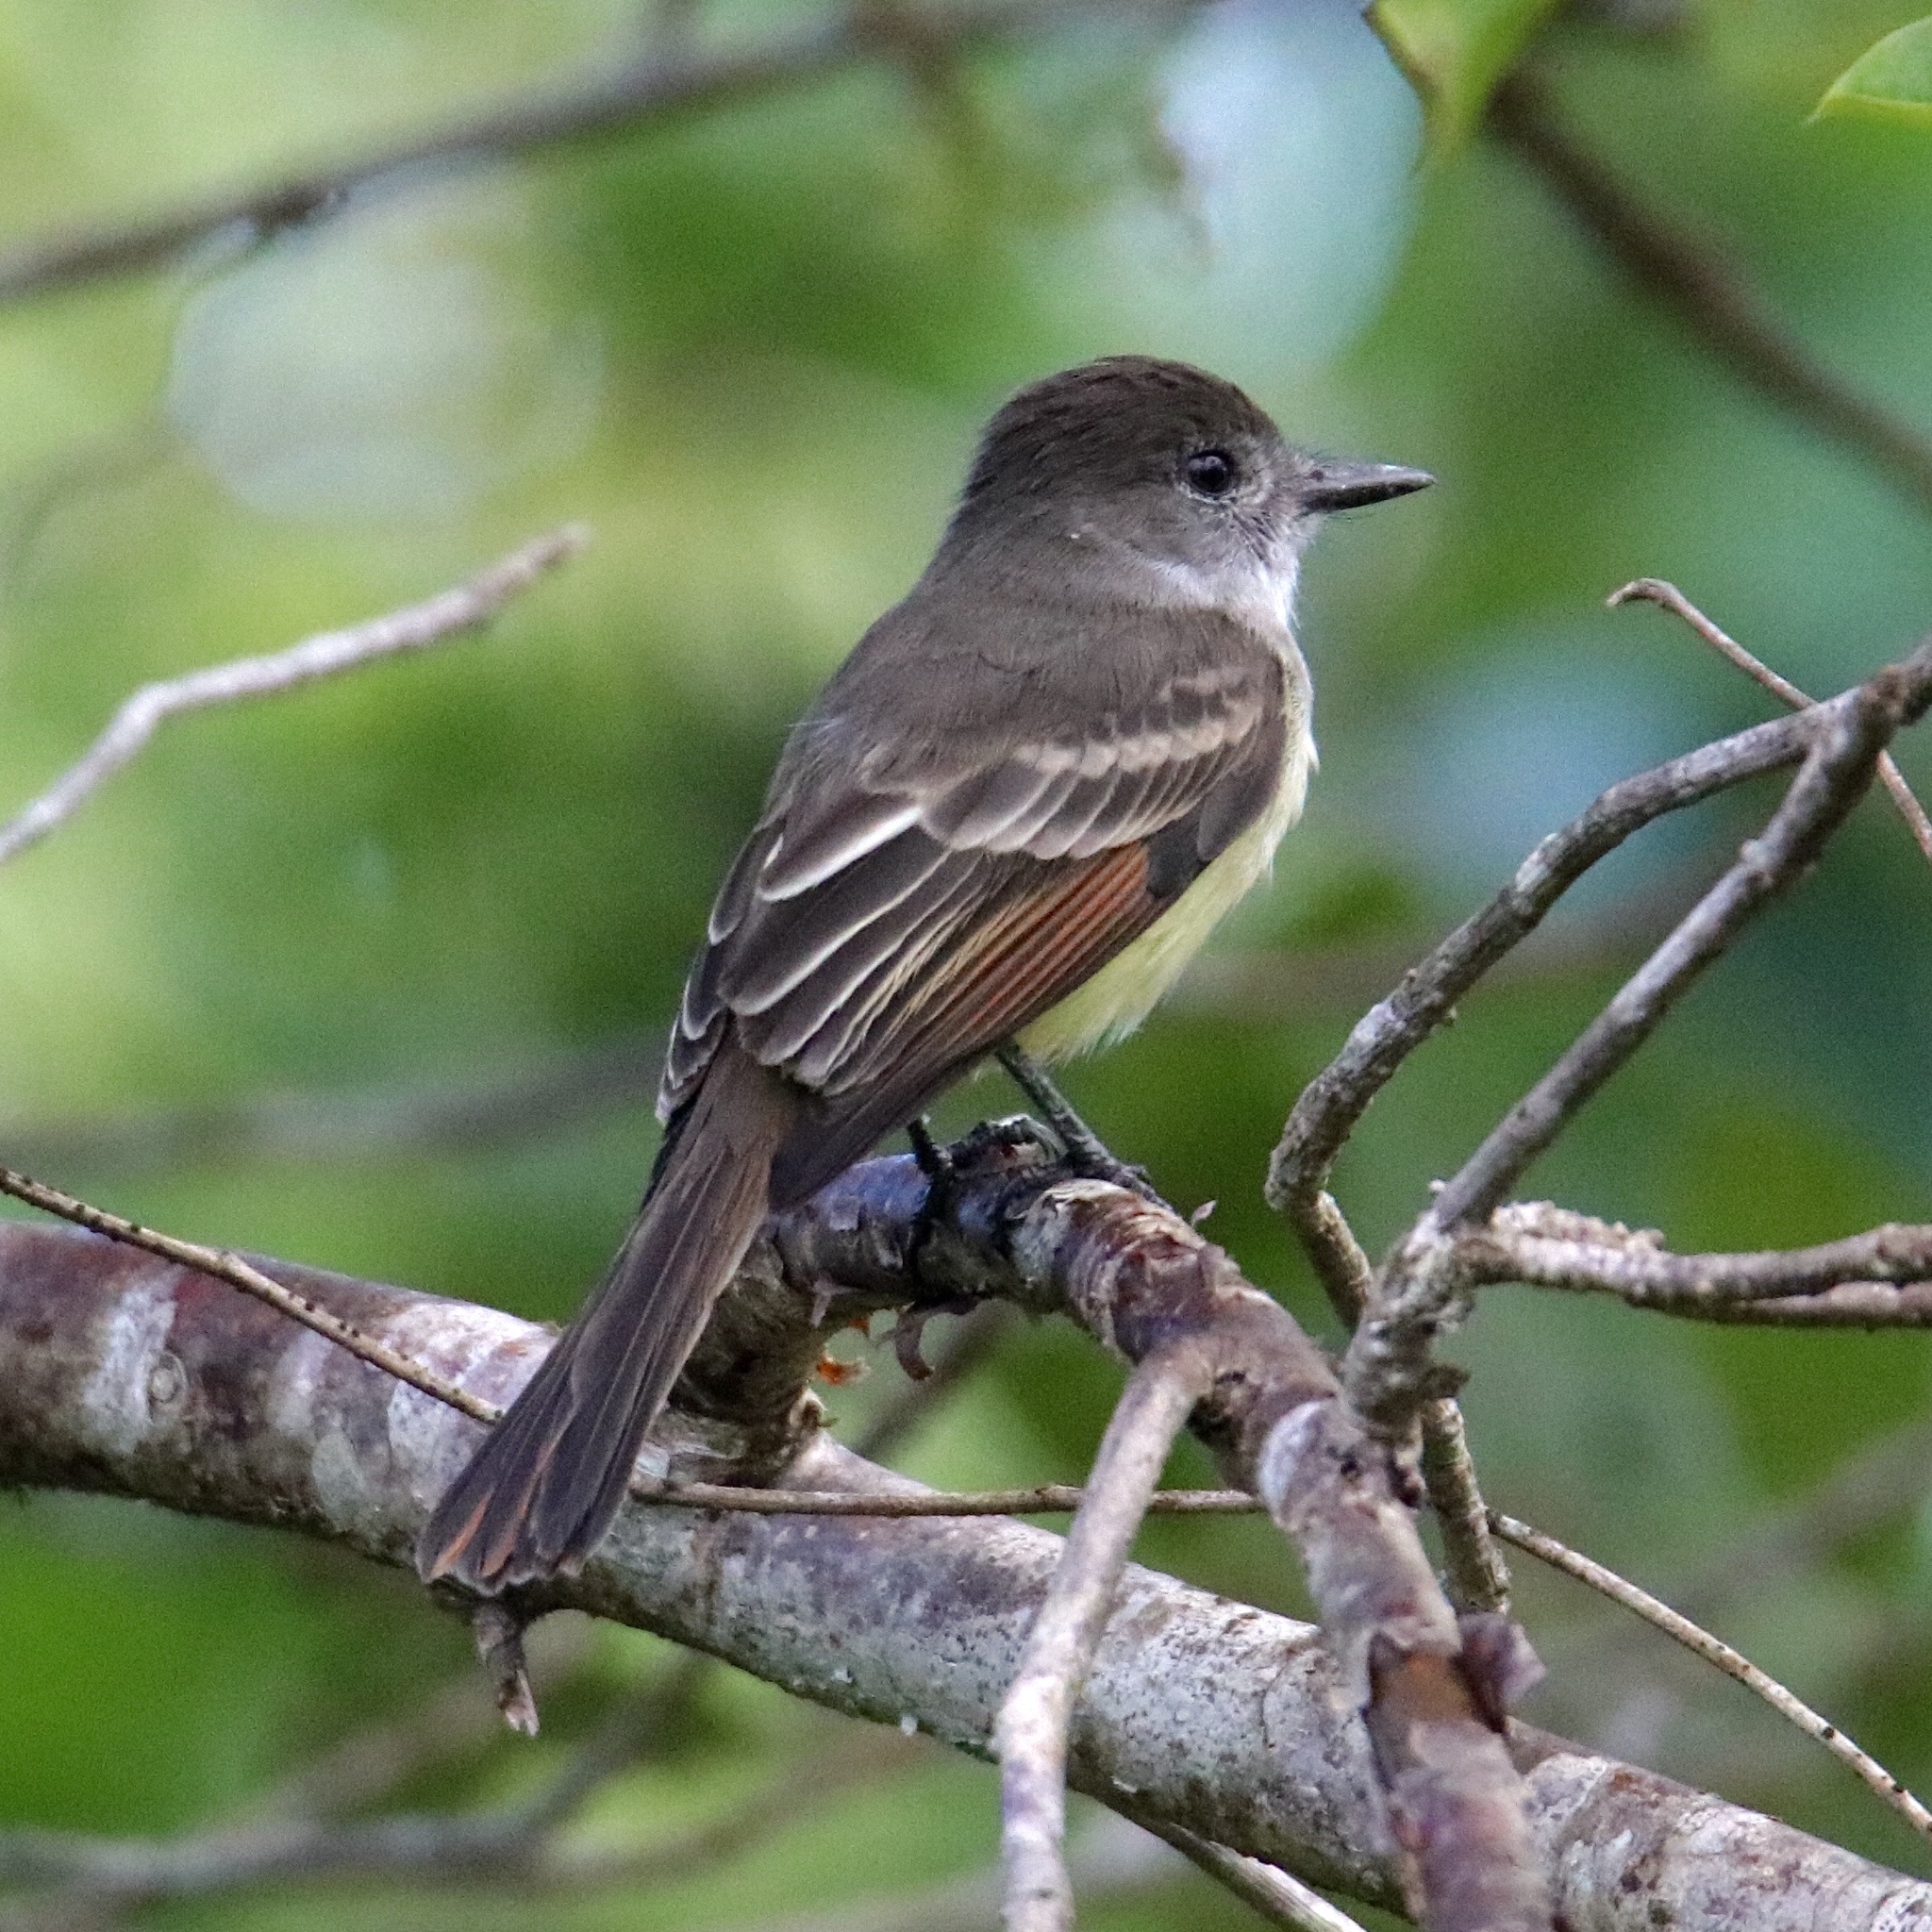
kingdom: Animalia
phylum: Chordata
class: Aves
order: Passeriformes
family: Tyrannidae
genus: Myiarchus
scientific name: Myiarchus stolidus
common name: Stolid flycatcher
